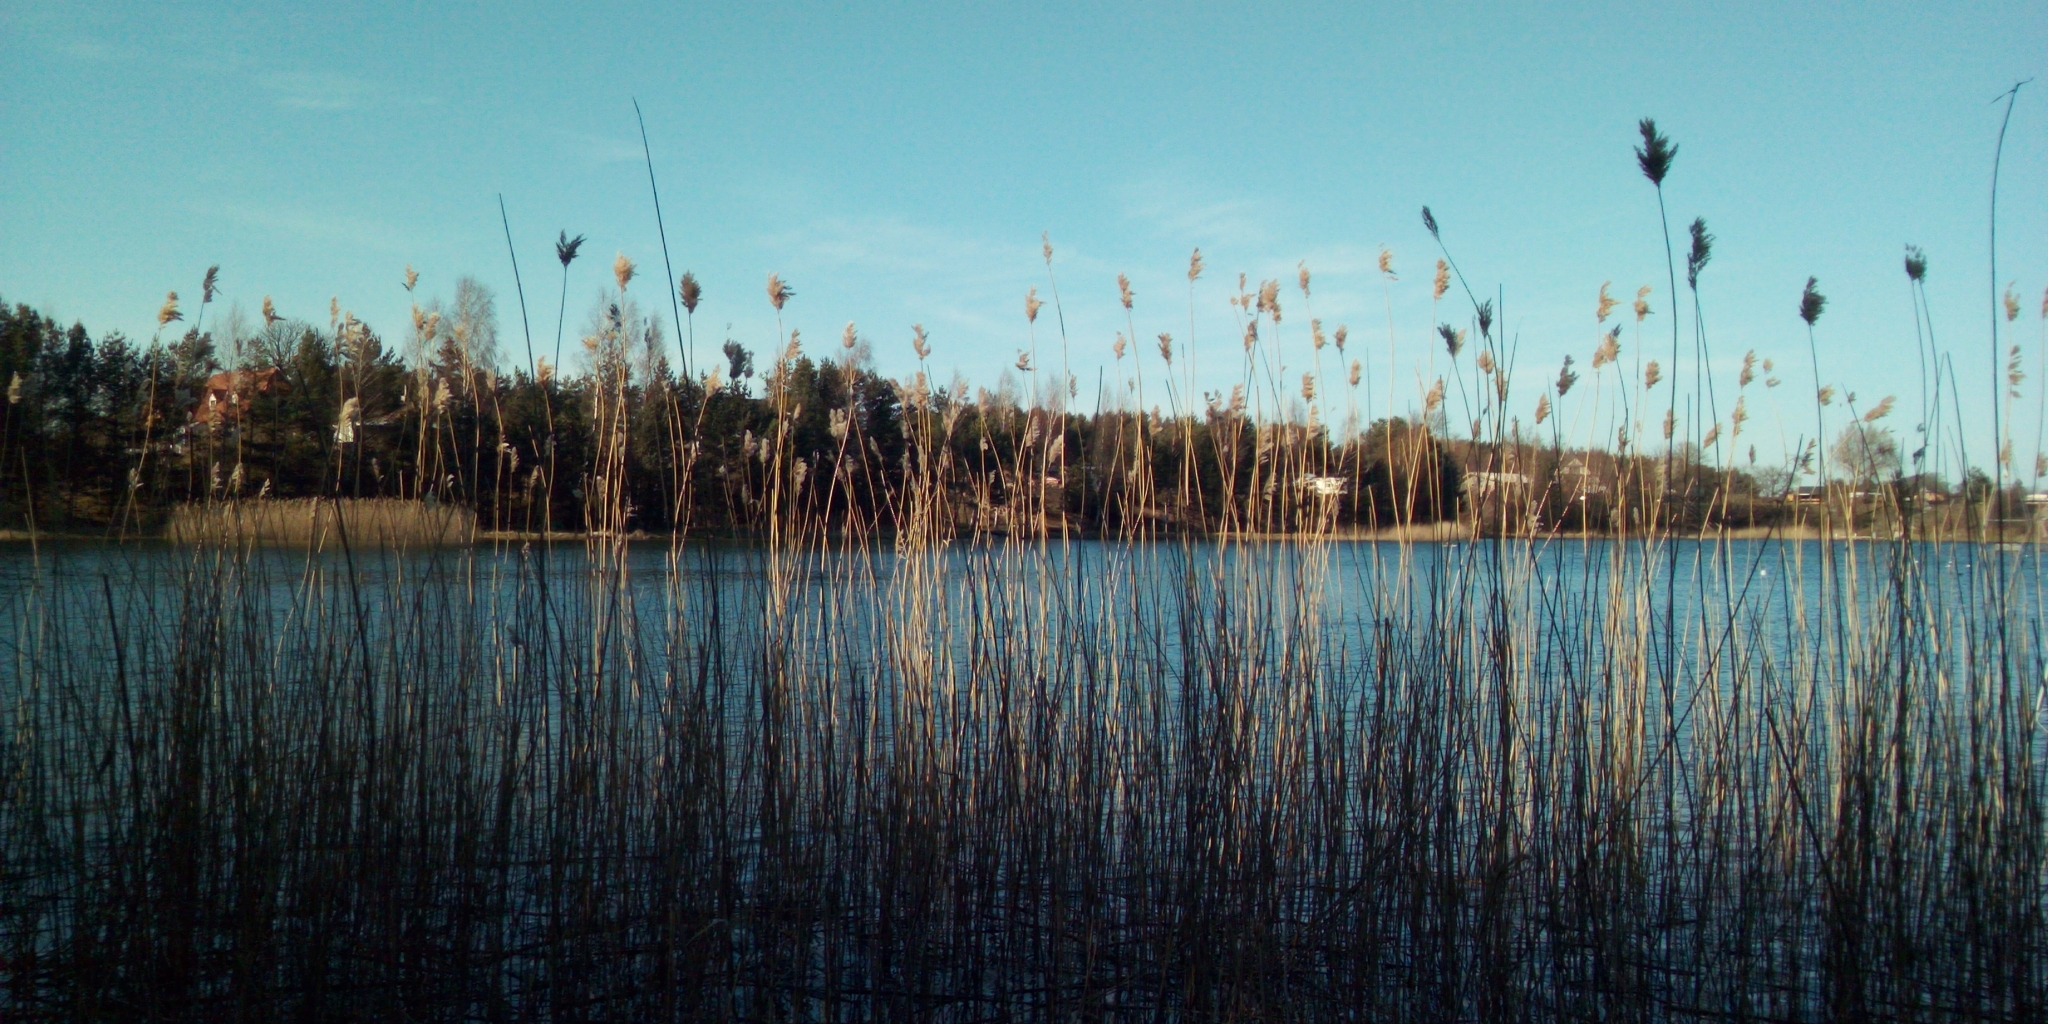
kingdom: Plantae
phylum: Tracheophyta
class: Liliopsida
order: Poales
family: Poaceae
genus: Phragmites
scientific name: Phragmites australis
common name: Common reed
